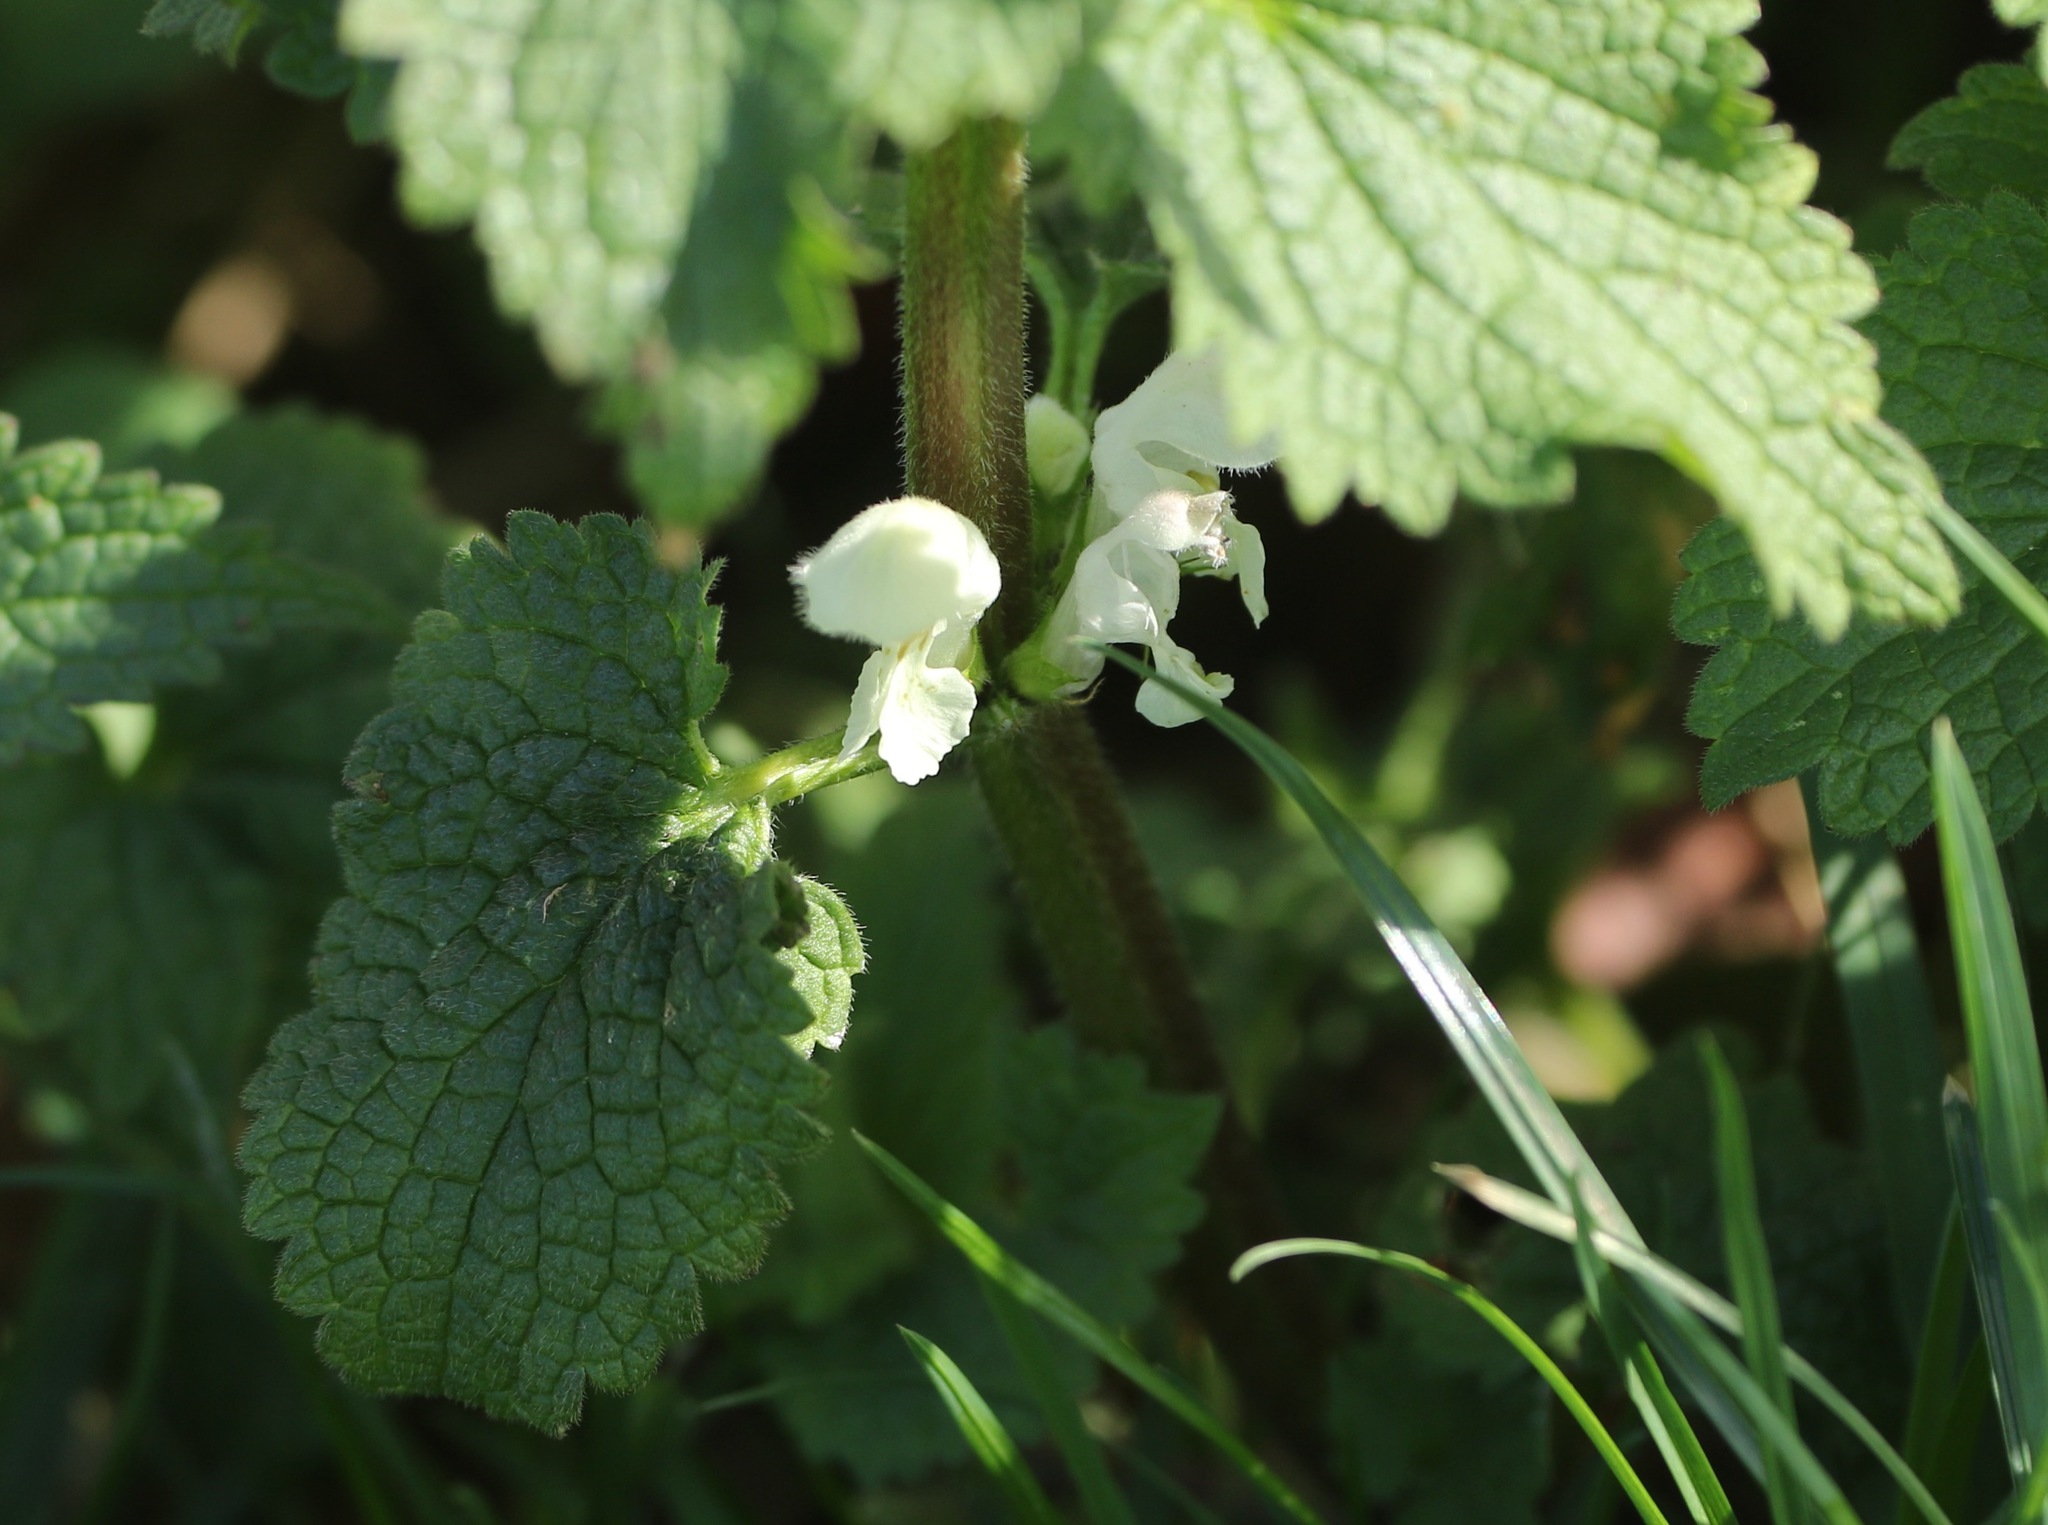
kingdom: Plantae
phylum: Tracheophyta
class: Magnoliopsida
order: Lamiales
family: Lamiaceae
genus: Lamium
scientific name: Lamium album
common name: White dead-nettle
